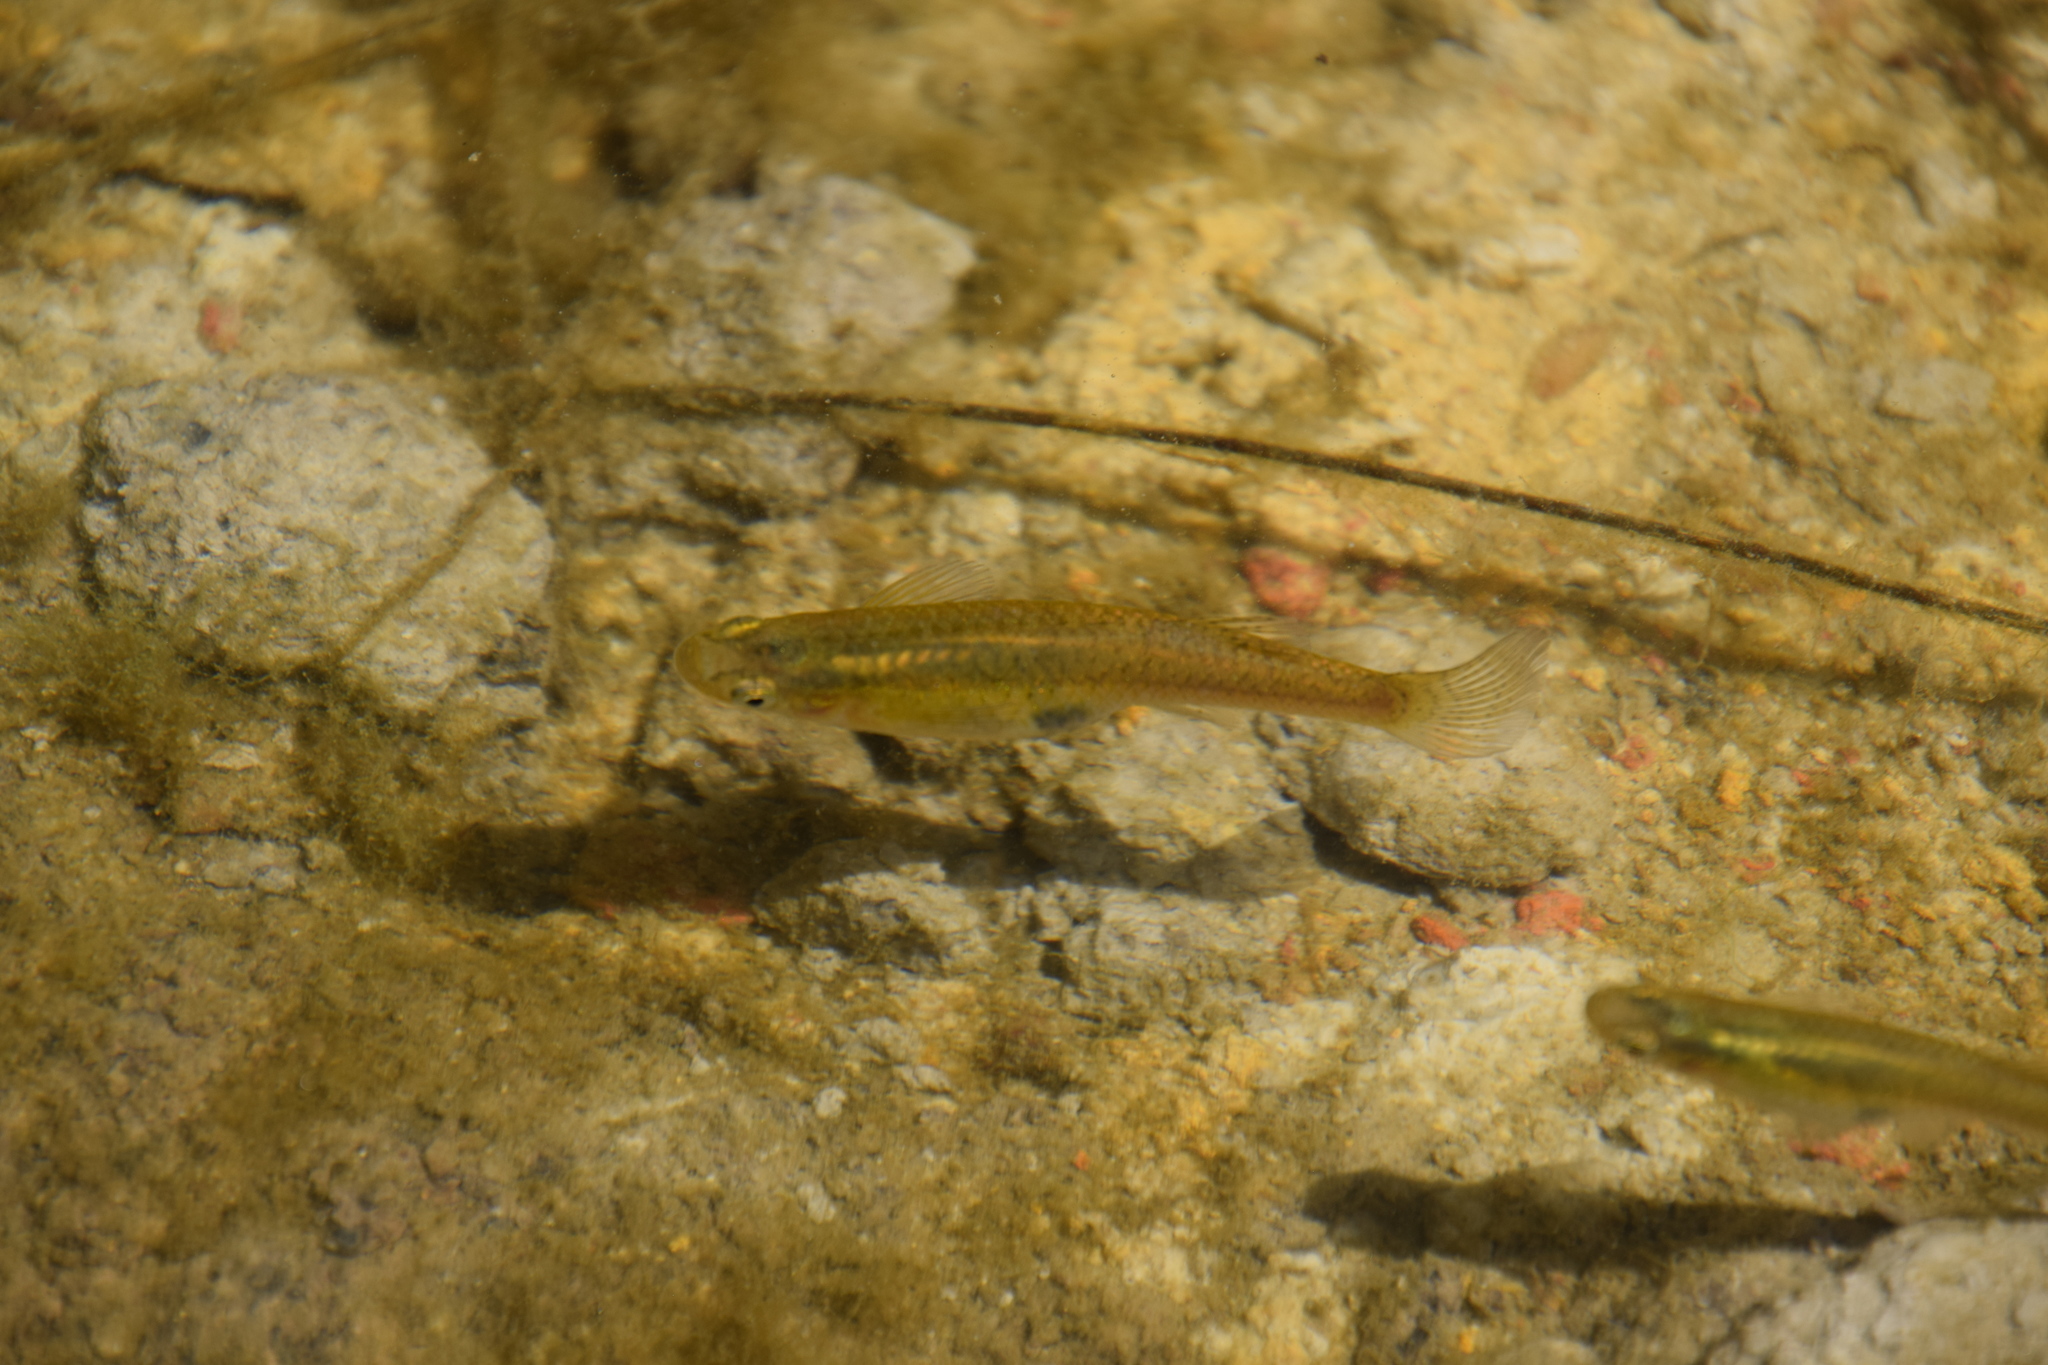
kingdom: Animalia
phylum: Chordata
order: Cyprinodontiformes
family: Poeciliidae
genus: Gambusia
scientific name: Gambusia holbrooki
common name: Eastern mosquitofish
